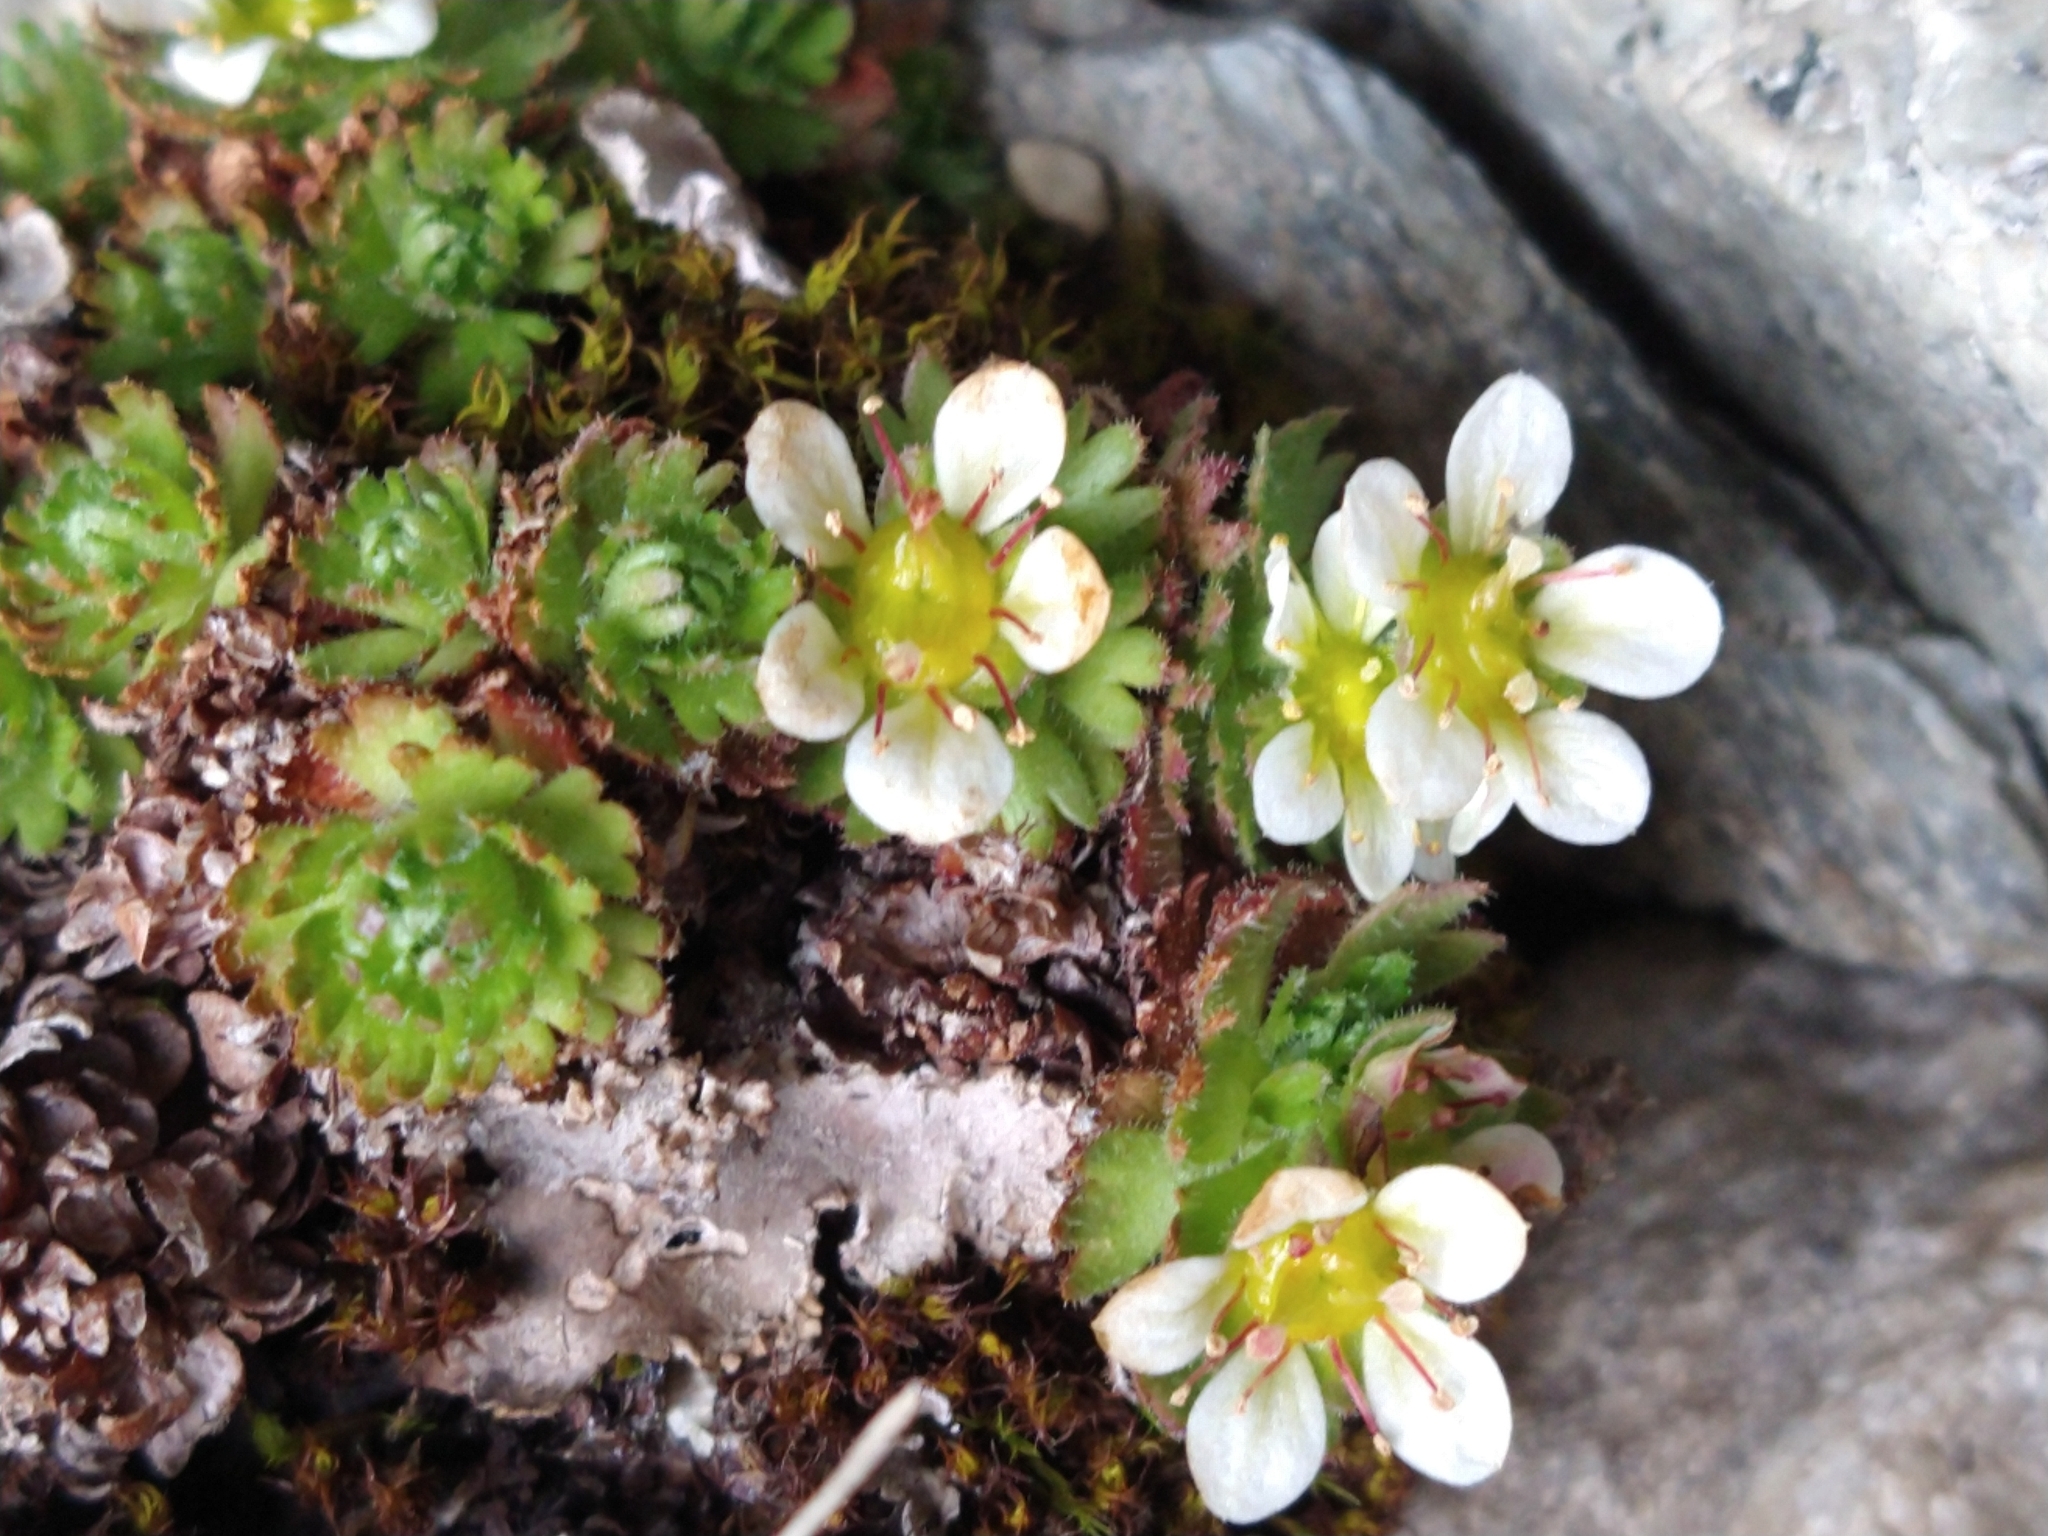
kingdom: Plantae
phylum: Tracheophyta
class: Magnoliopsida
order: Saxifragales
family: Saxifragaceae
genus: Saxifraga
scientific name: Saxifraga magellanica
